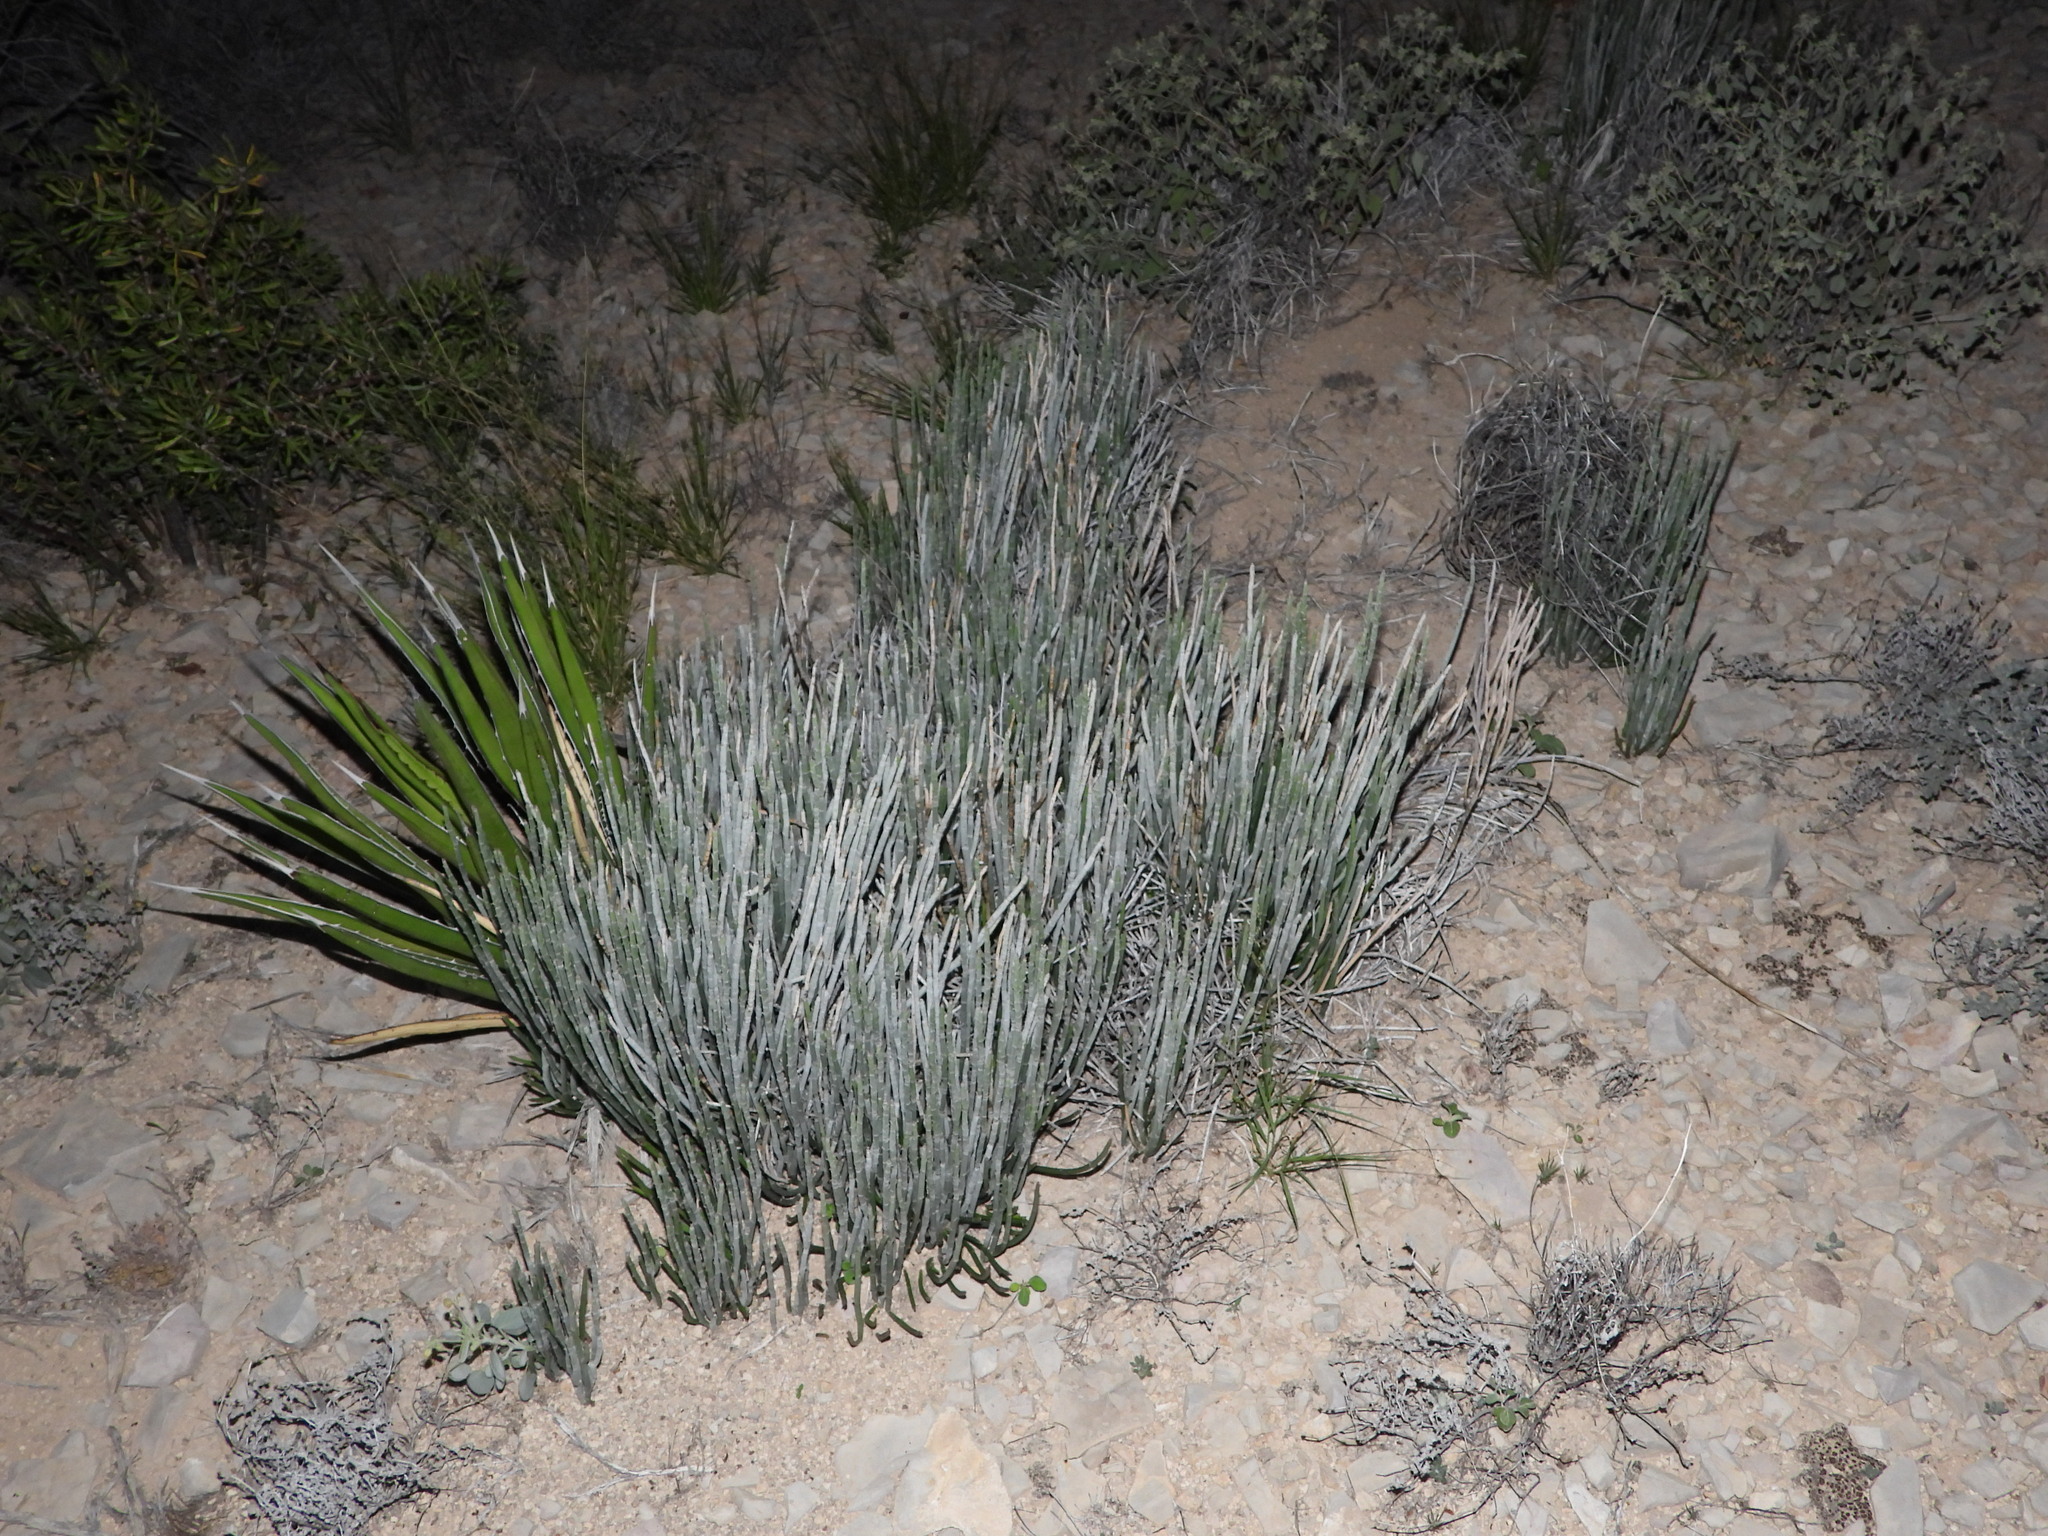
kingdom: Plantae
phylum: Tracheophyta
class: Magnoliopsida
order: Malpighiales
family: Euphorbiaceae
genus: Euphorbia
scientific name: Euphorbia antisyphilitica
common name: Candelilla
